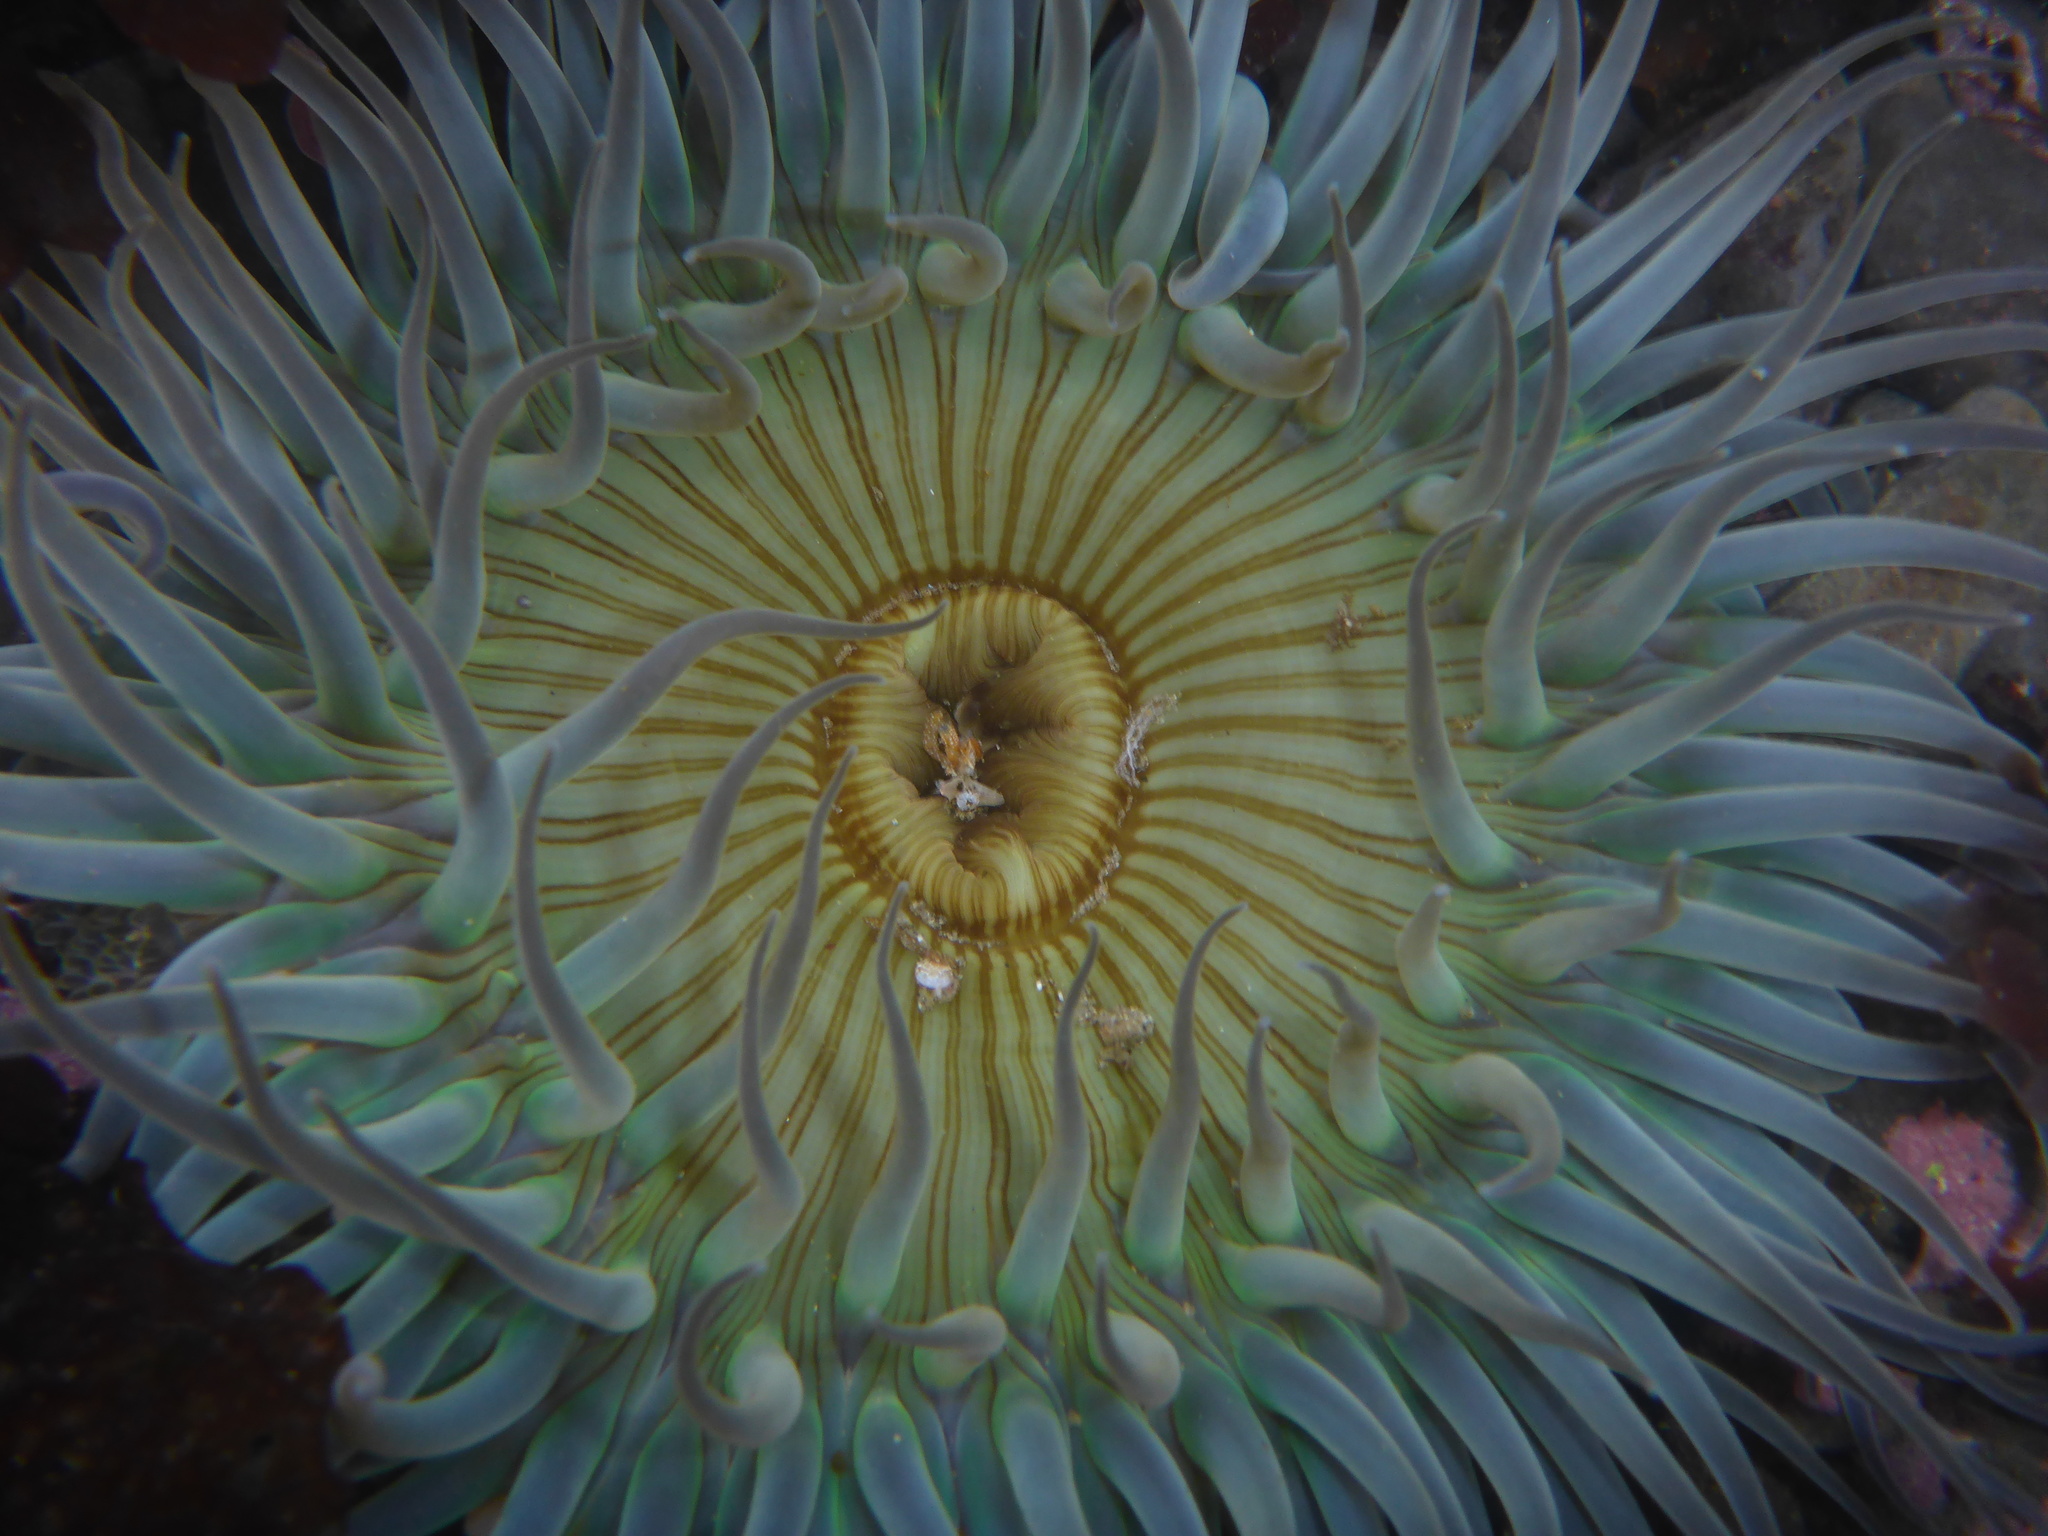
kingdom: Animalia
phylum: Cnidaria
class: Anthozoa
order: Actiniaria
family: Actiniidae
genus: Anthopleura
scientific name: Anthopleura sola
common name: Sun anemone
